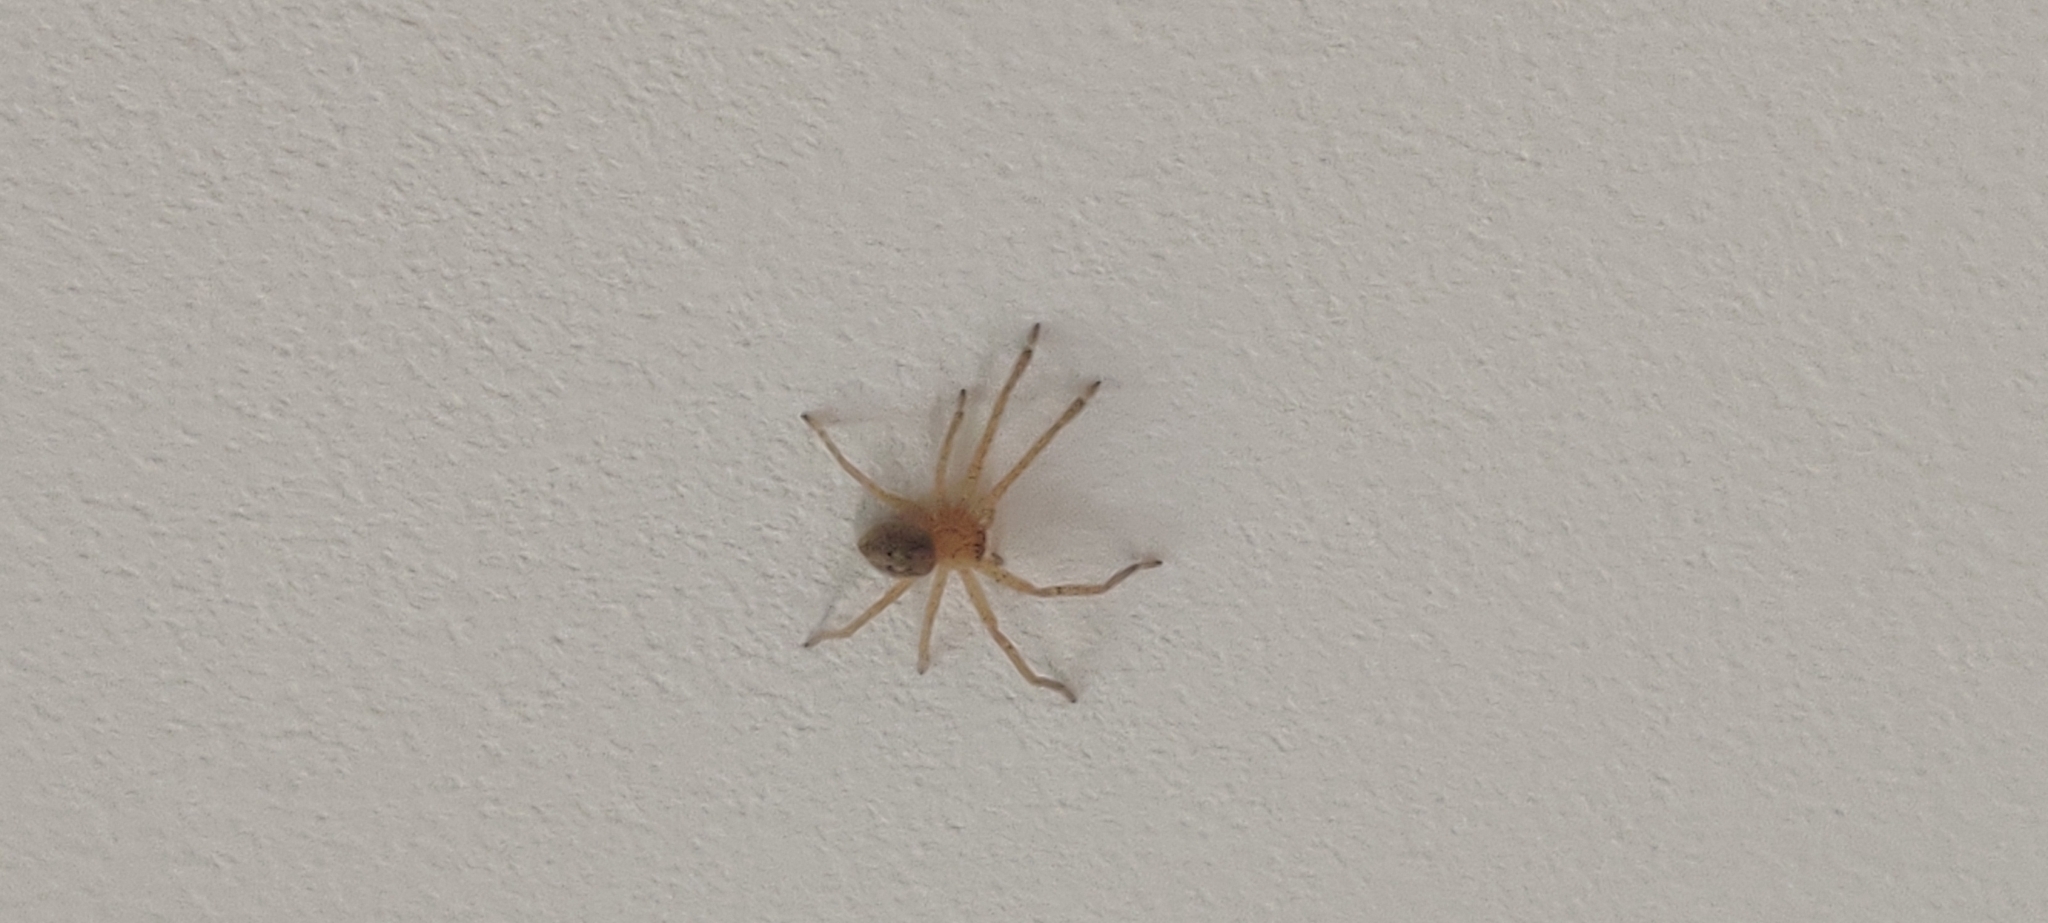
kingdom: Animalia
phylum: Arthropoda
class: Arachnida
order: Araneae
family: Sparassidae
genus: Olios
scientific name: Olios argelasius
